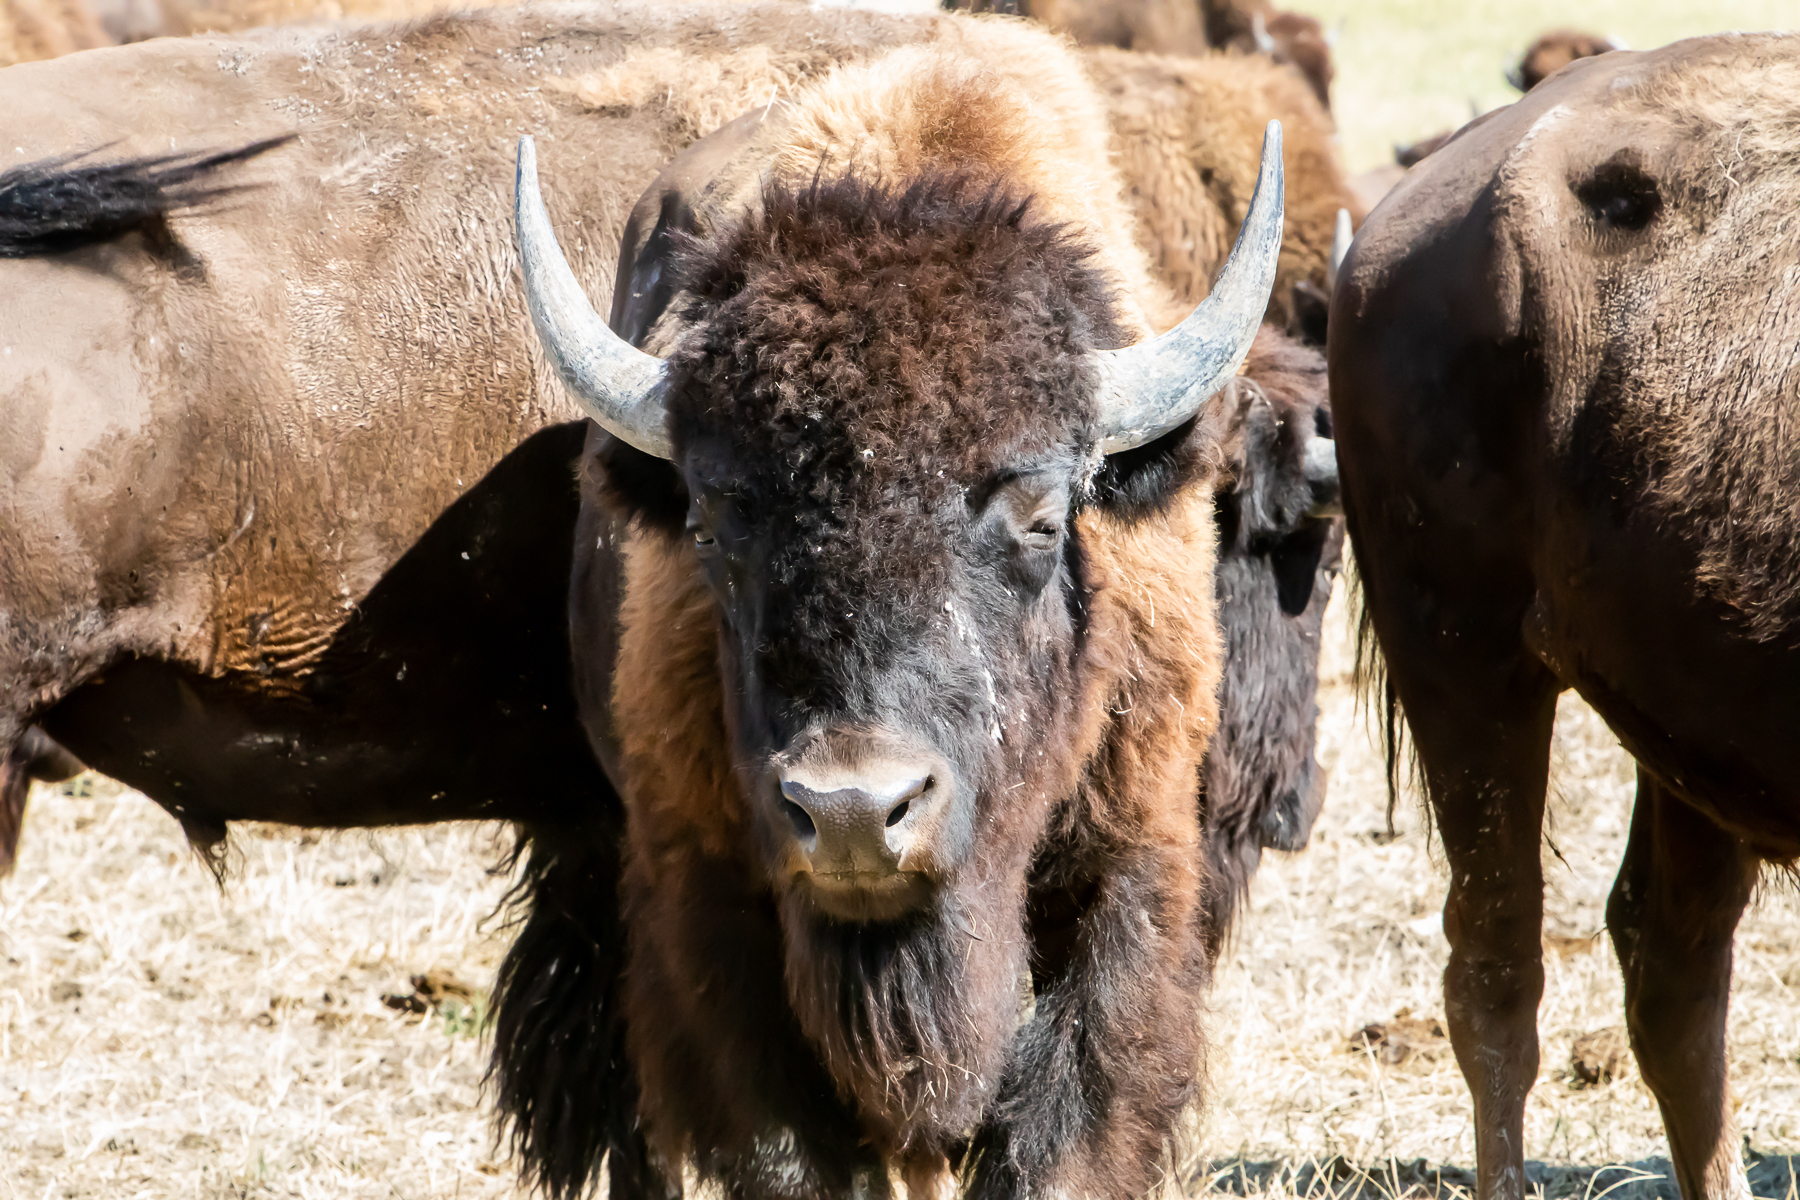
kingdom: Animalia
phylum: Chordata
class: Mammalia
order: Artiodactyla
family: Bovidae
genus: Bison
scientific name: Bison bison
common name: American bison
